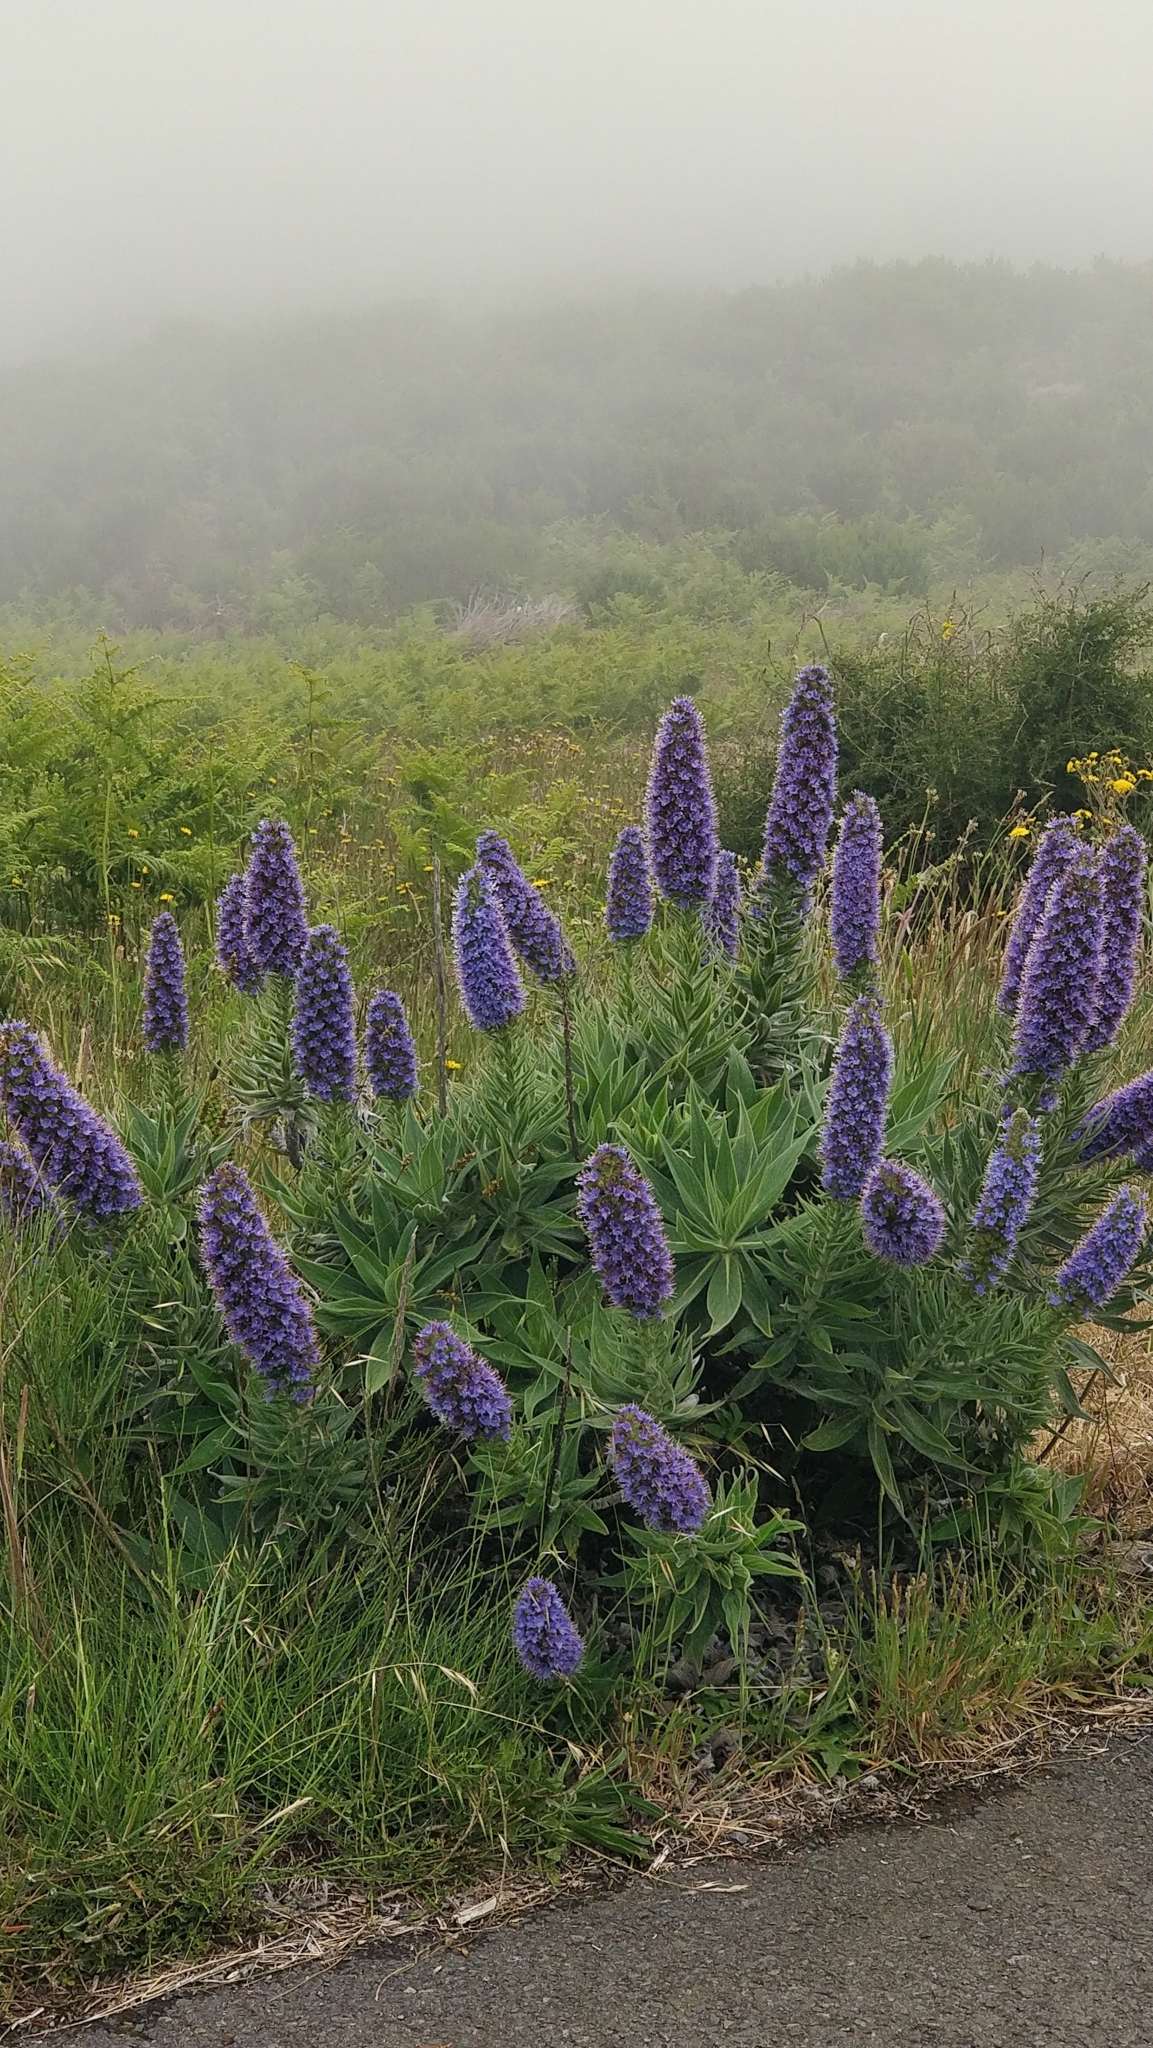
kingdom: Plantae
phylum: Tracheophyta
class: Magnoliopsida
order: Boraginales
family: Boraginaceae
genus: Echium
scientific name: Echium candicans
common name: Pride of madeira
